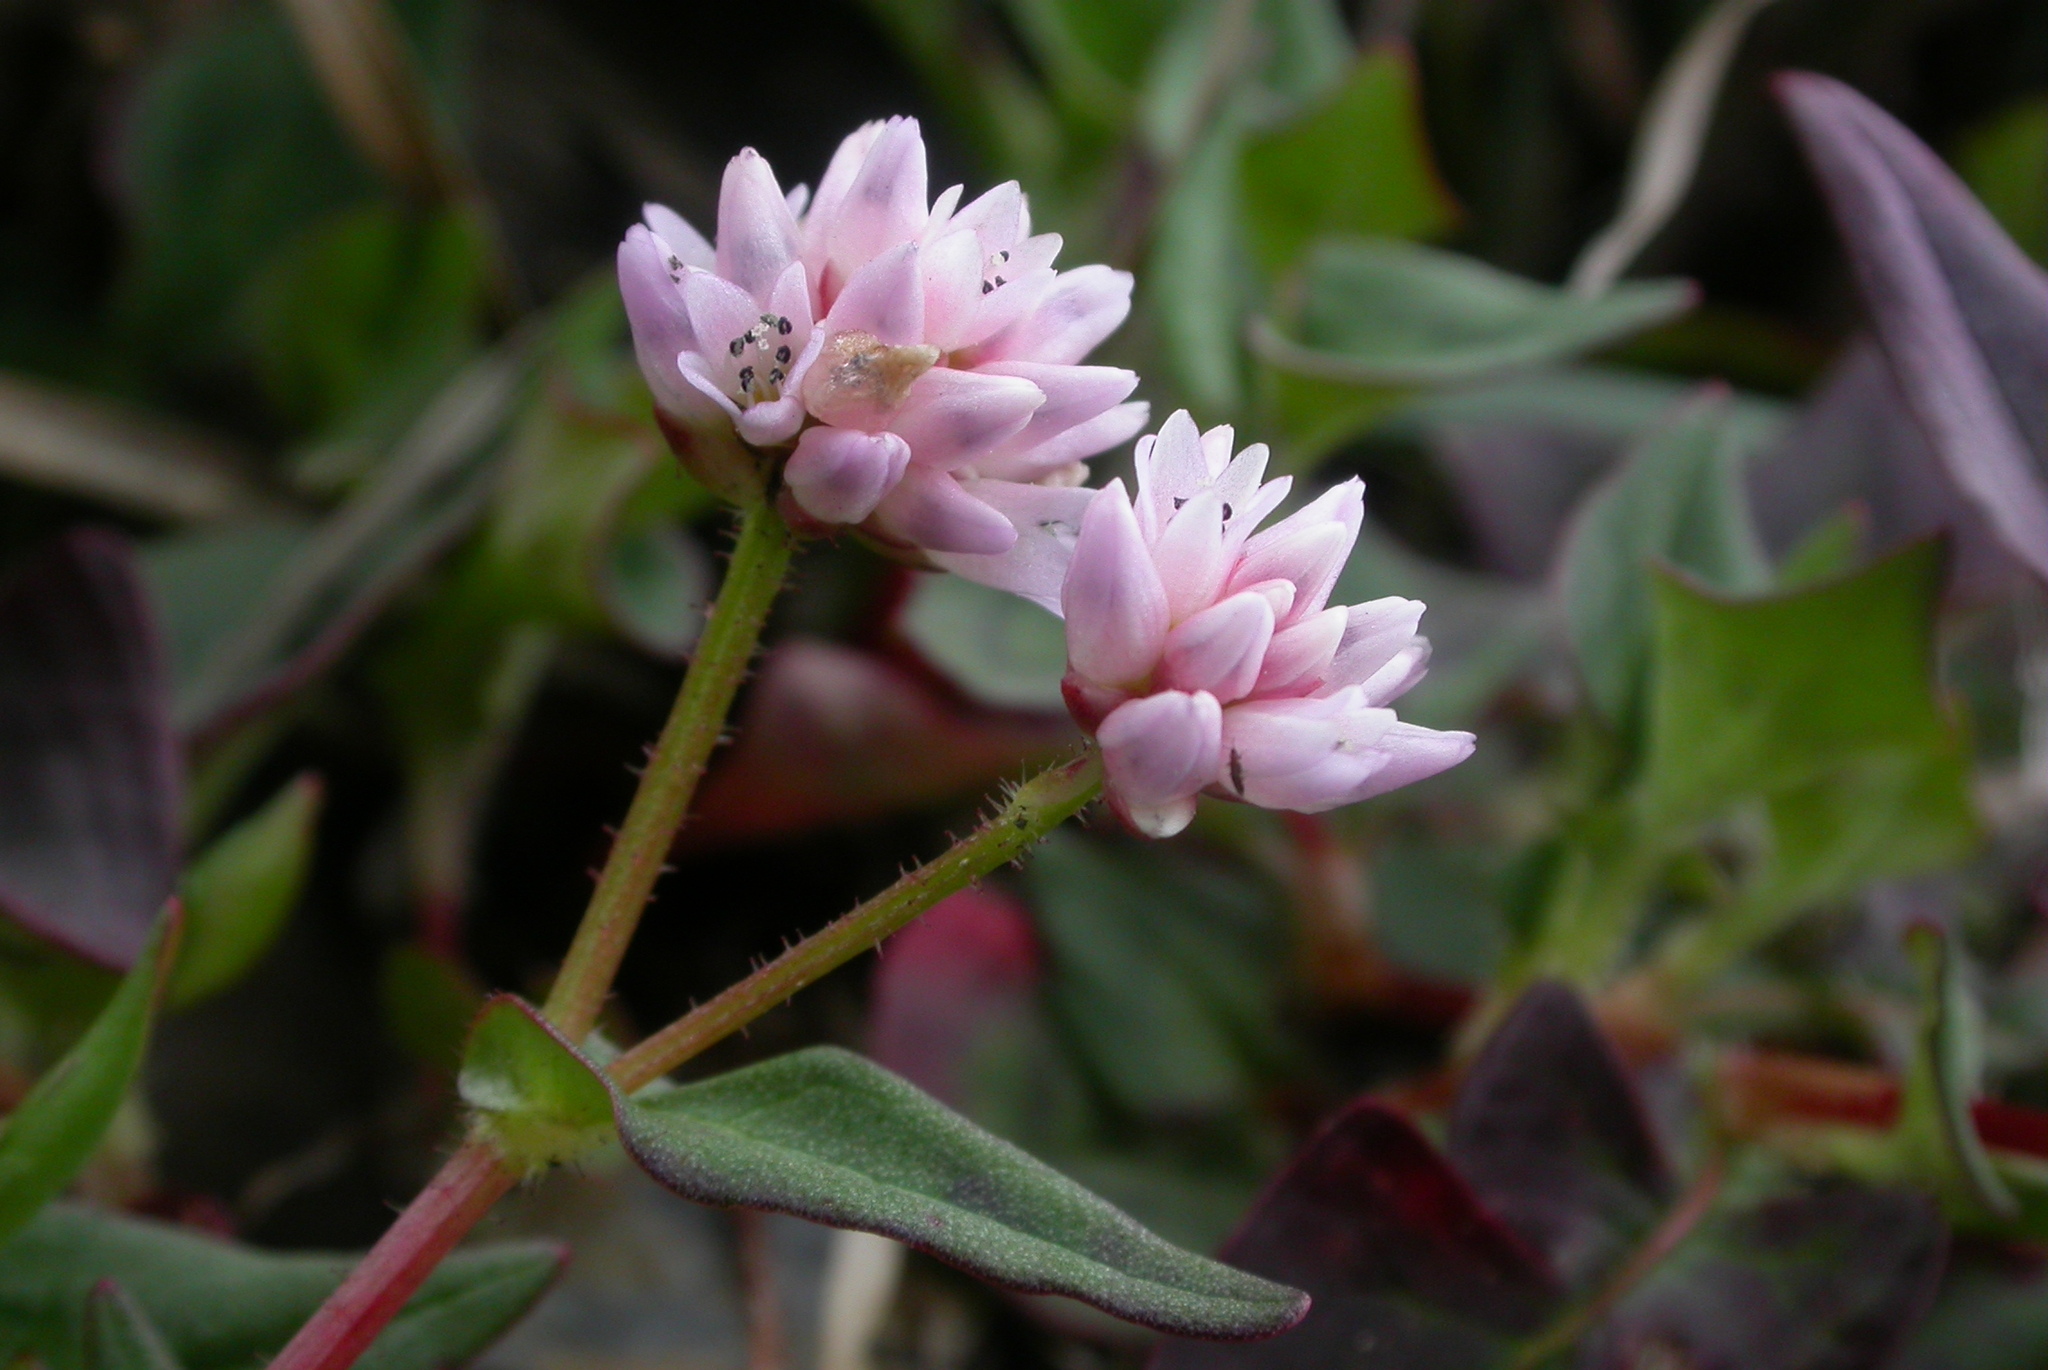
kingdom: Plantae
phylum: Tracheophyta
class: Magnoliopsida
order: Caryophyllales
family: Polygonaceae
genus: Persicaria
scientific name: Persicaria runcinata
